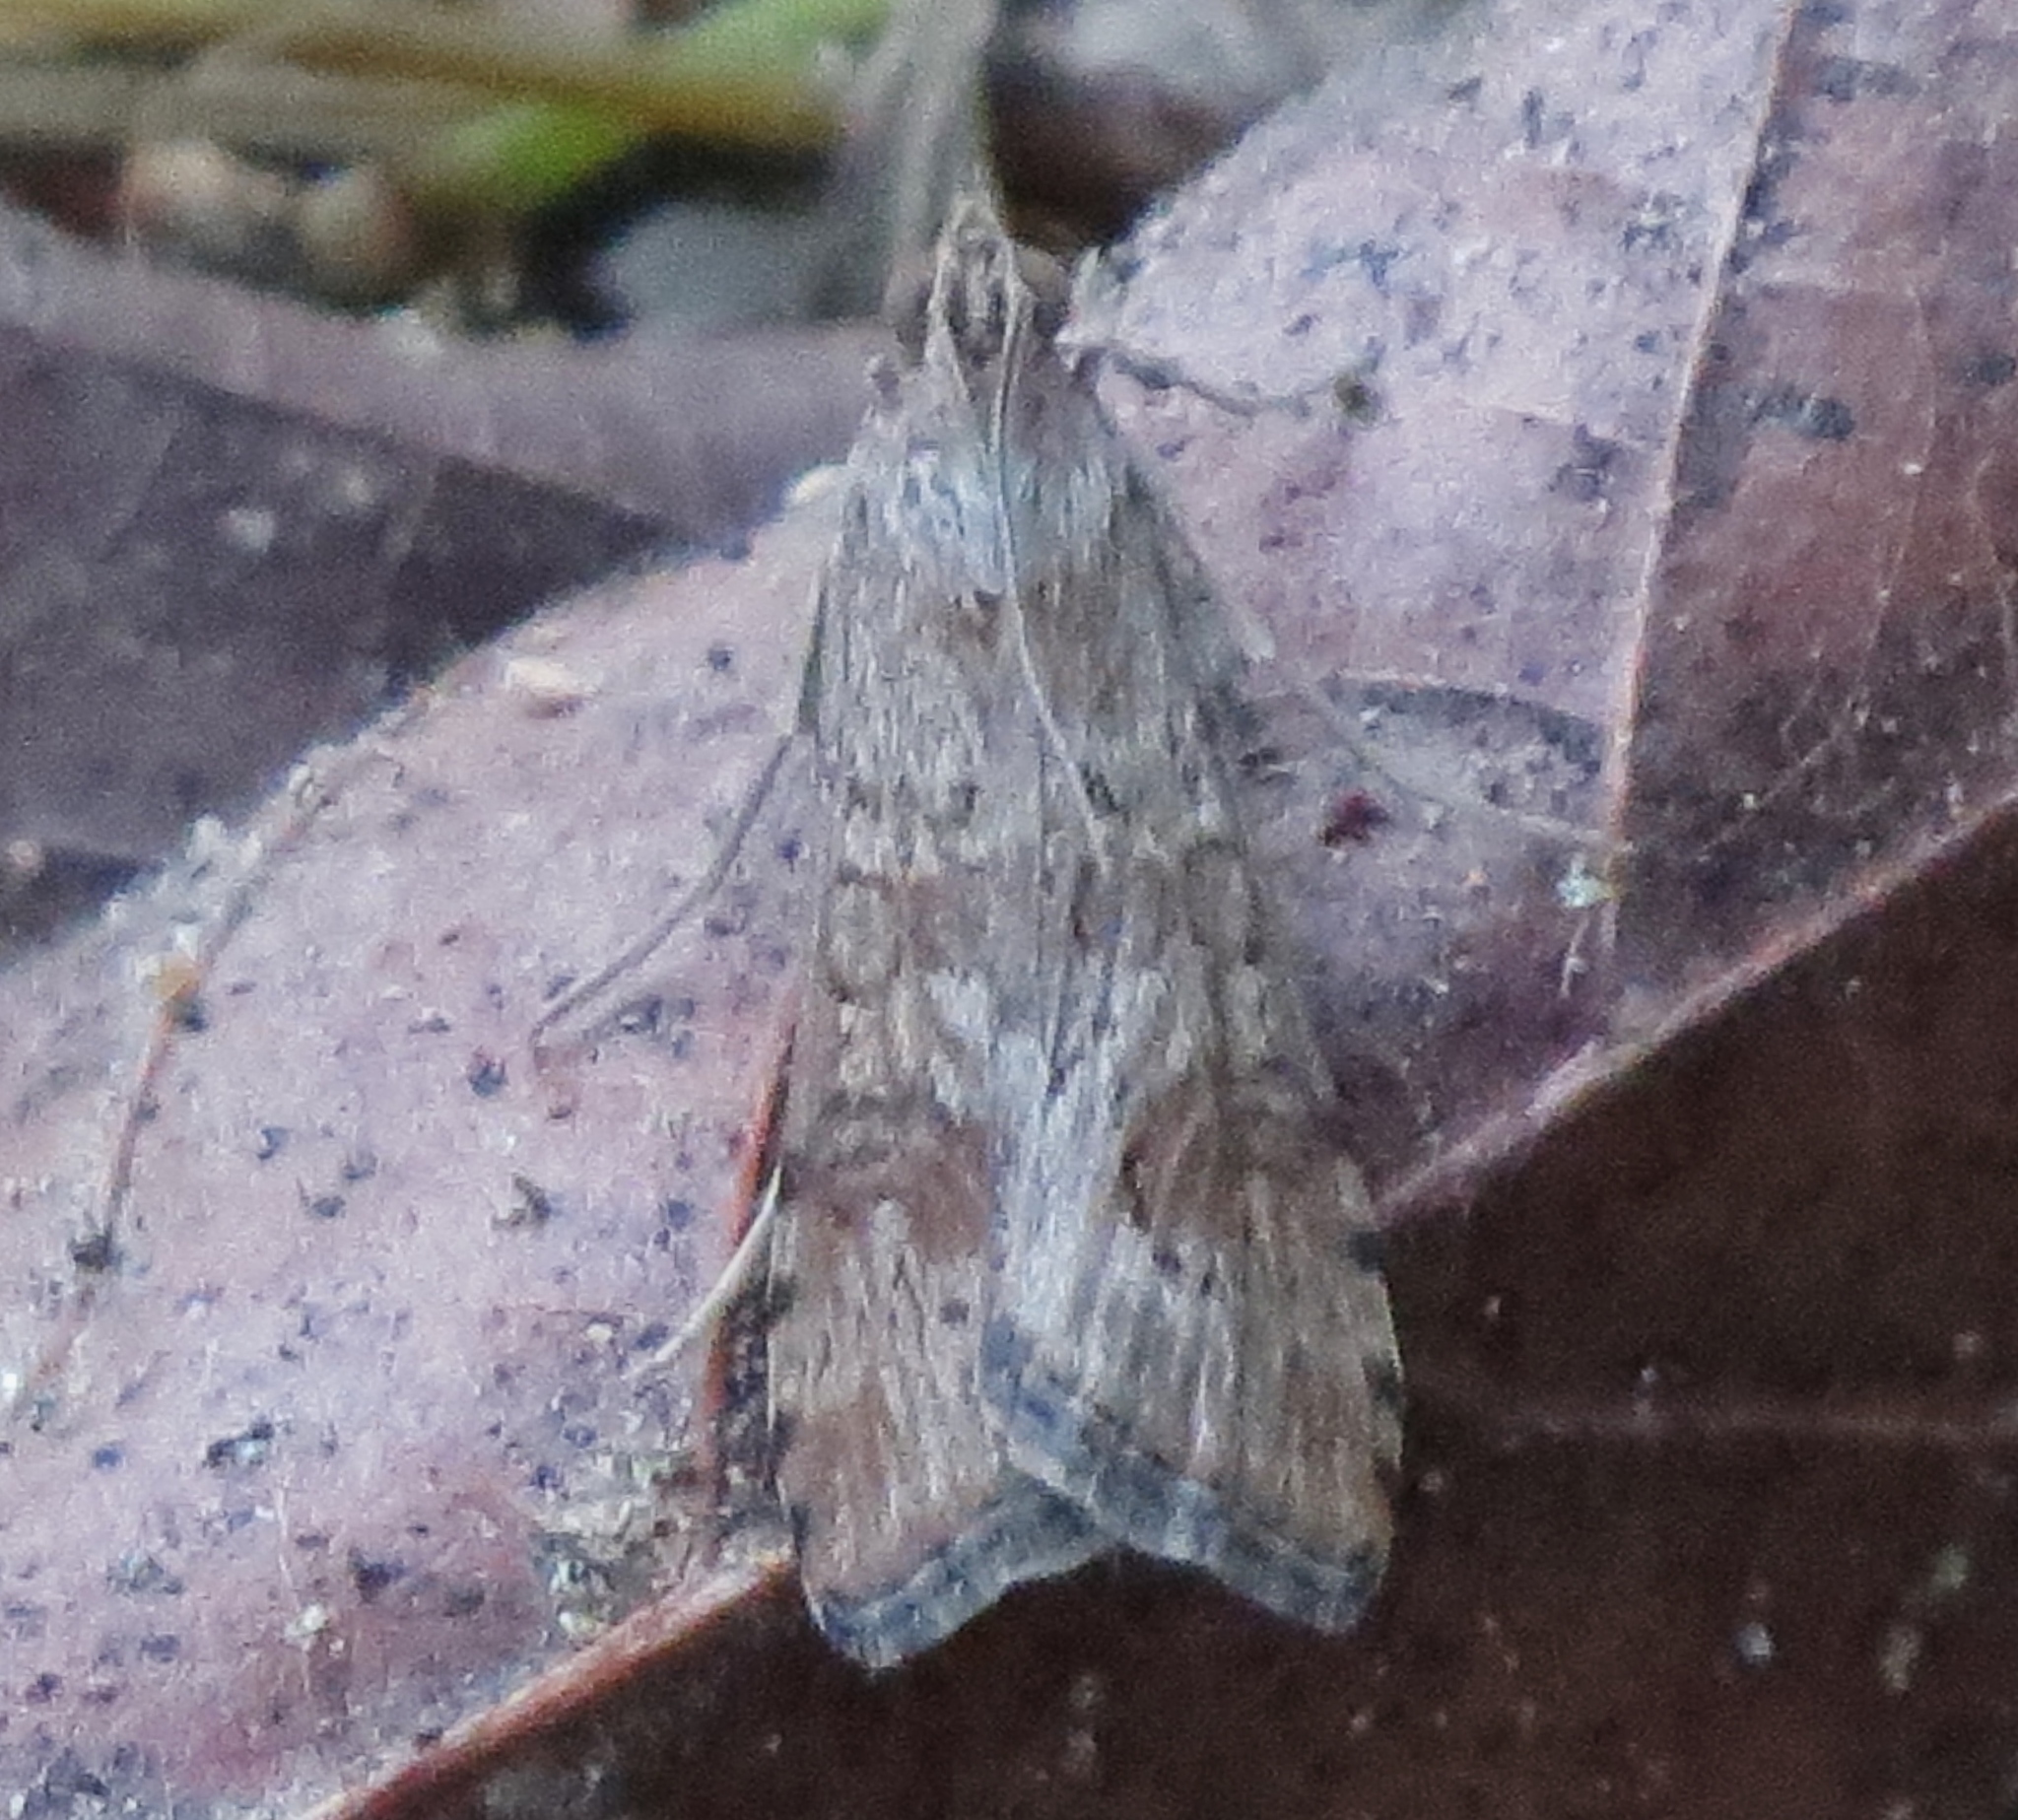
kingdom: Animalia
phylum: Arthropoda
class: Insecta
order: Lepidoptera
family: Crambidae
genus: Nomophila
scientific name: Nomophila nearctica
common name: American rush veneer
